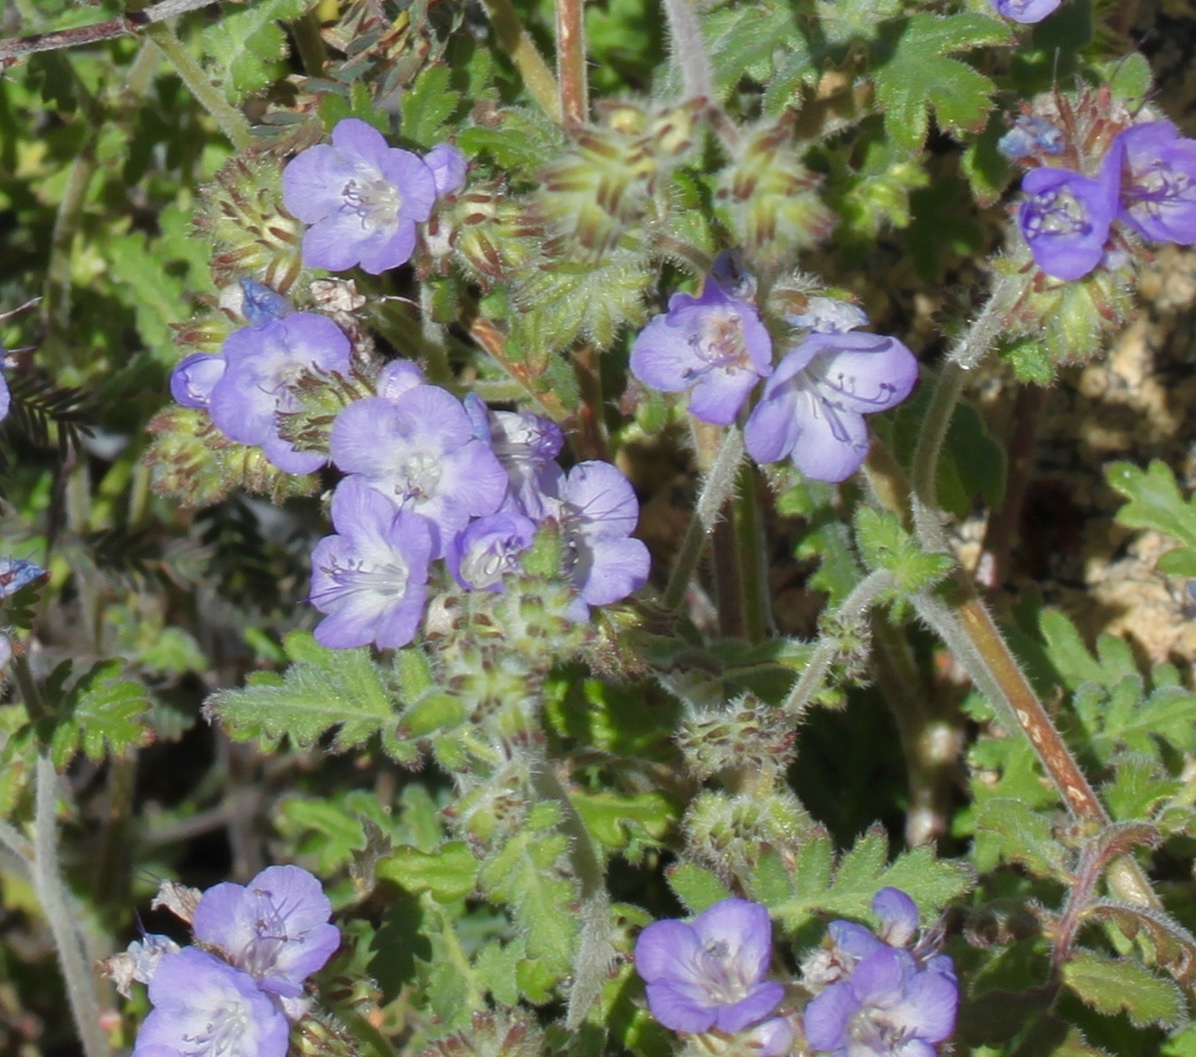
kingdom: Plantae
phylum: Tracheophyta
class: Magnoliopsida
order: Boraginales
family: Hydrophyllaceae
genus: Phacelia
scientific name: Phacelia distans
